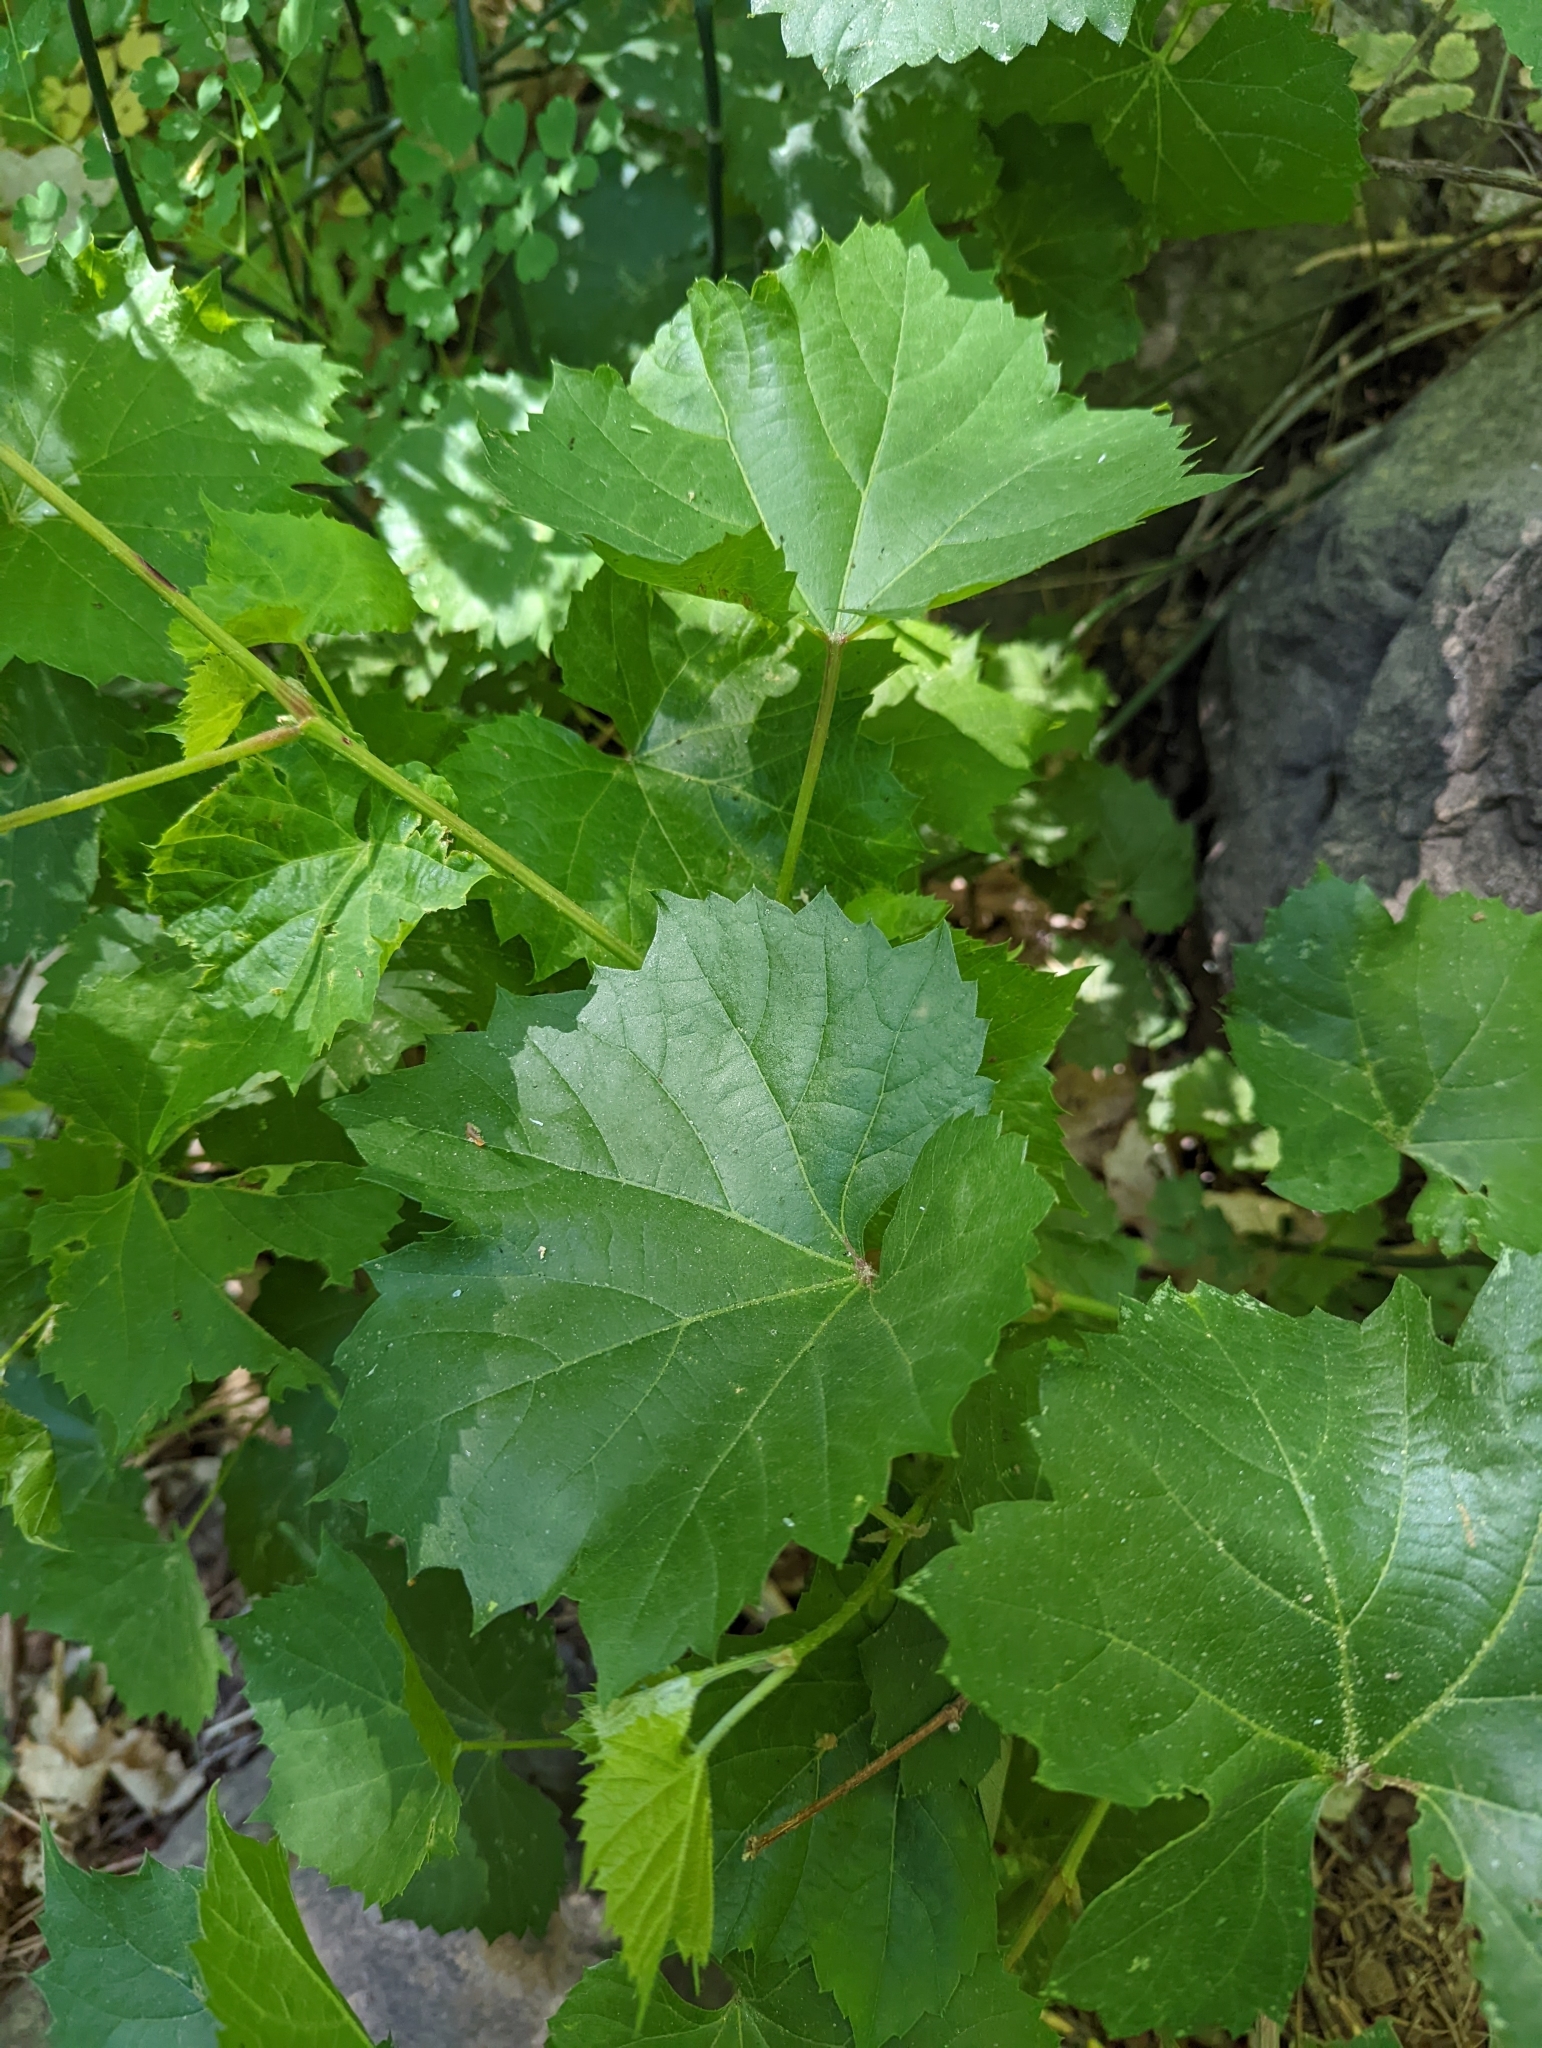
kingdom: Plantae
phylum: Tracheophyta
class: Magnoliopsida
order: Vitales
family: Vitaceae
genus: Vitis
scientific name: Vitis arizonica
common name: Canyon grape
